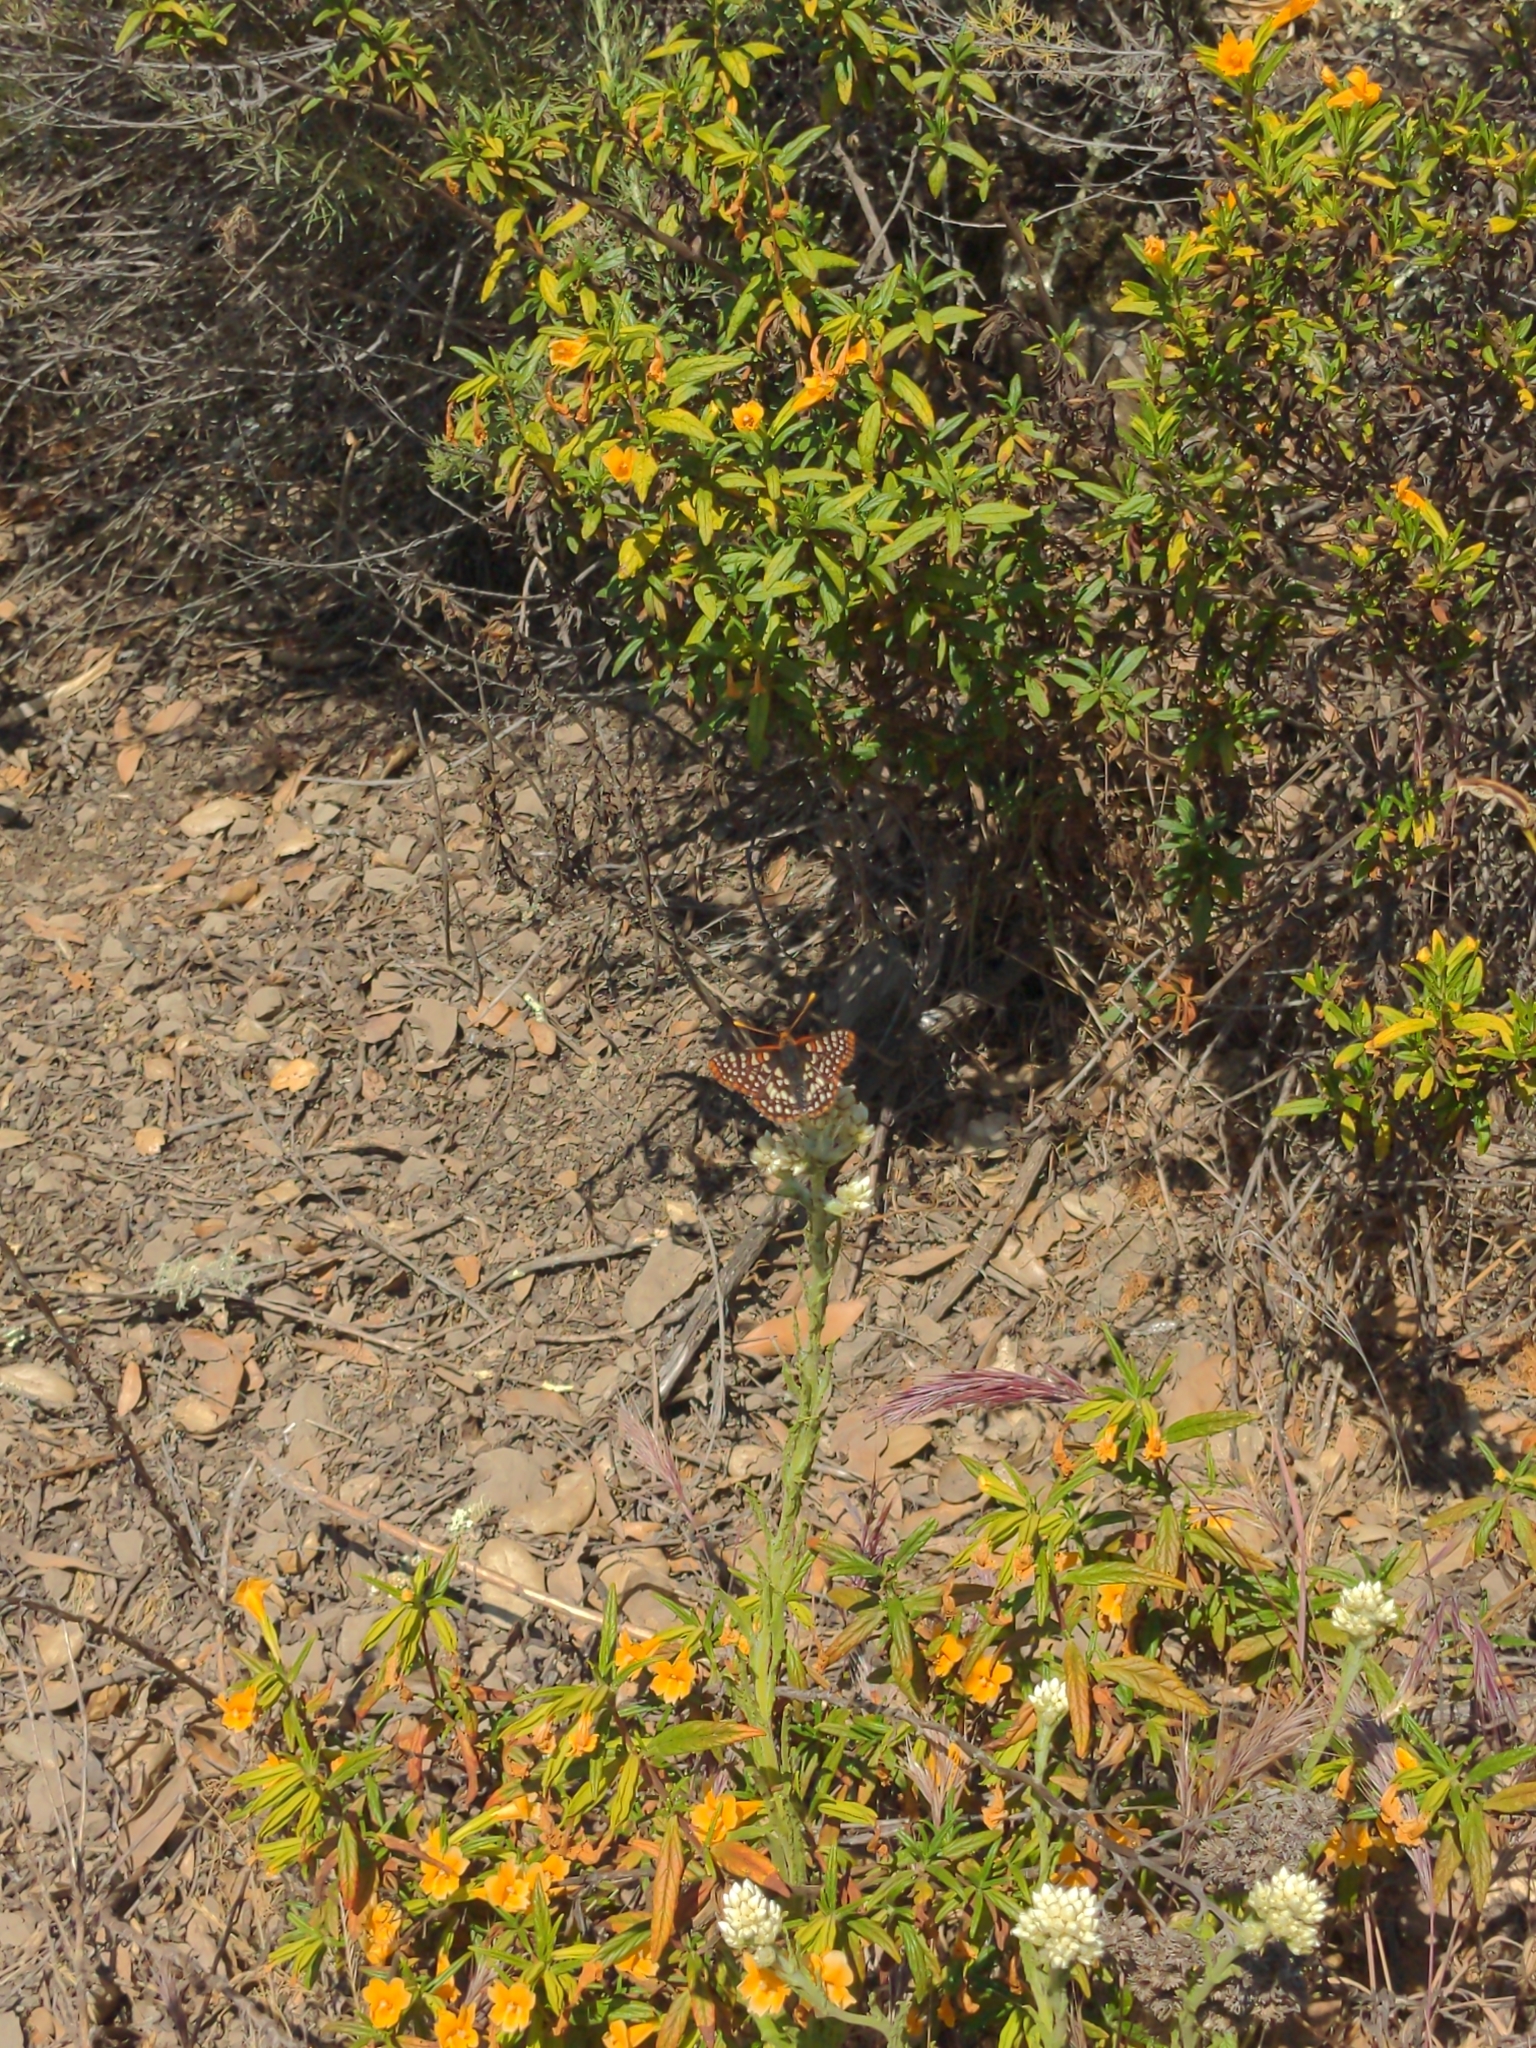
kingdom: Animalia
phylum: Arthropoda
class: Insecta
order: Lepidoptera
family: Nymphalidae
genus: Occidryas
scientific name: Occidryas chalcedona
